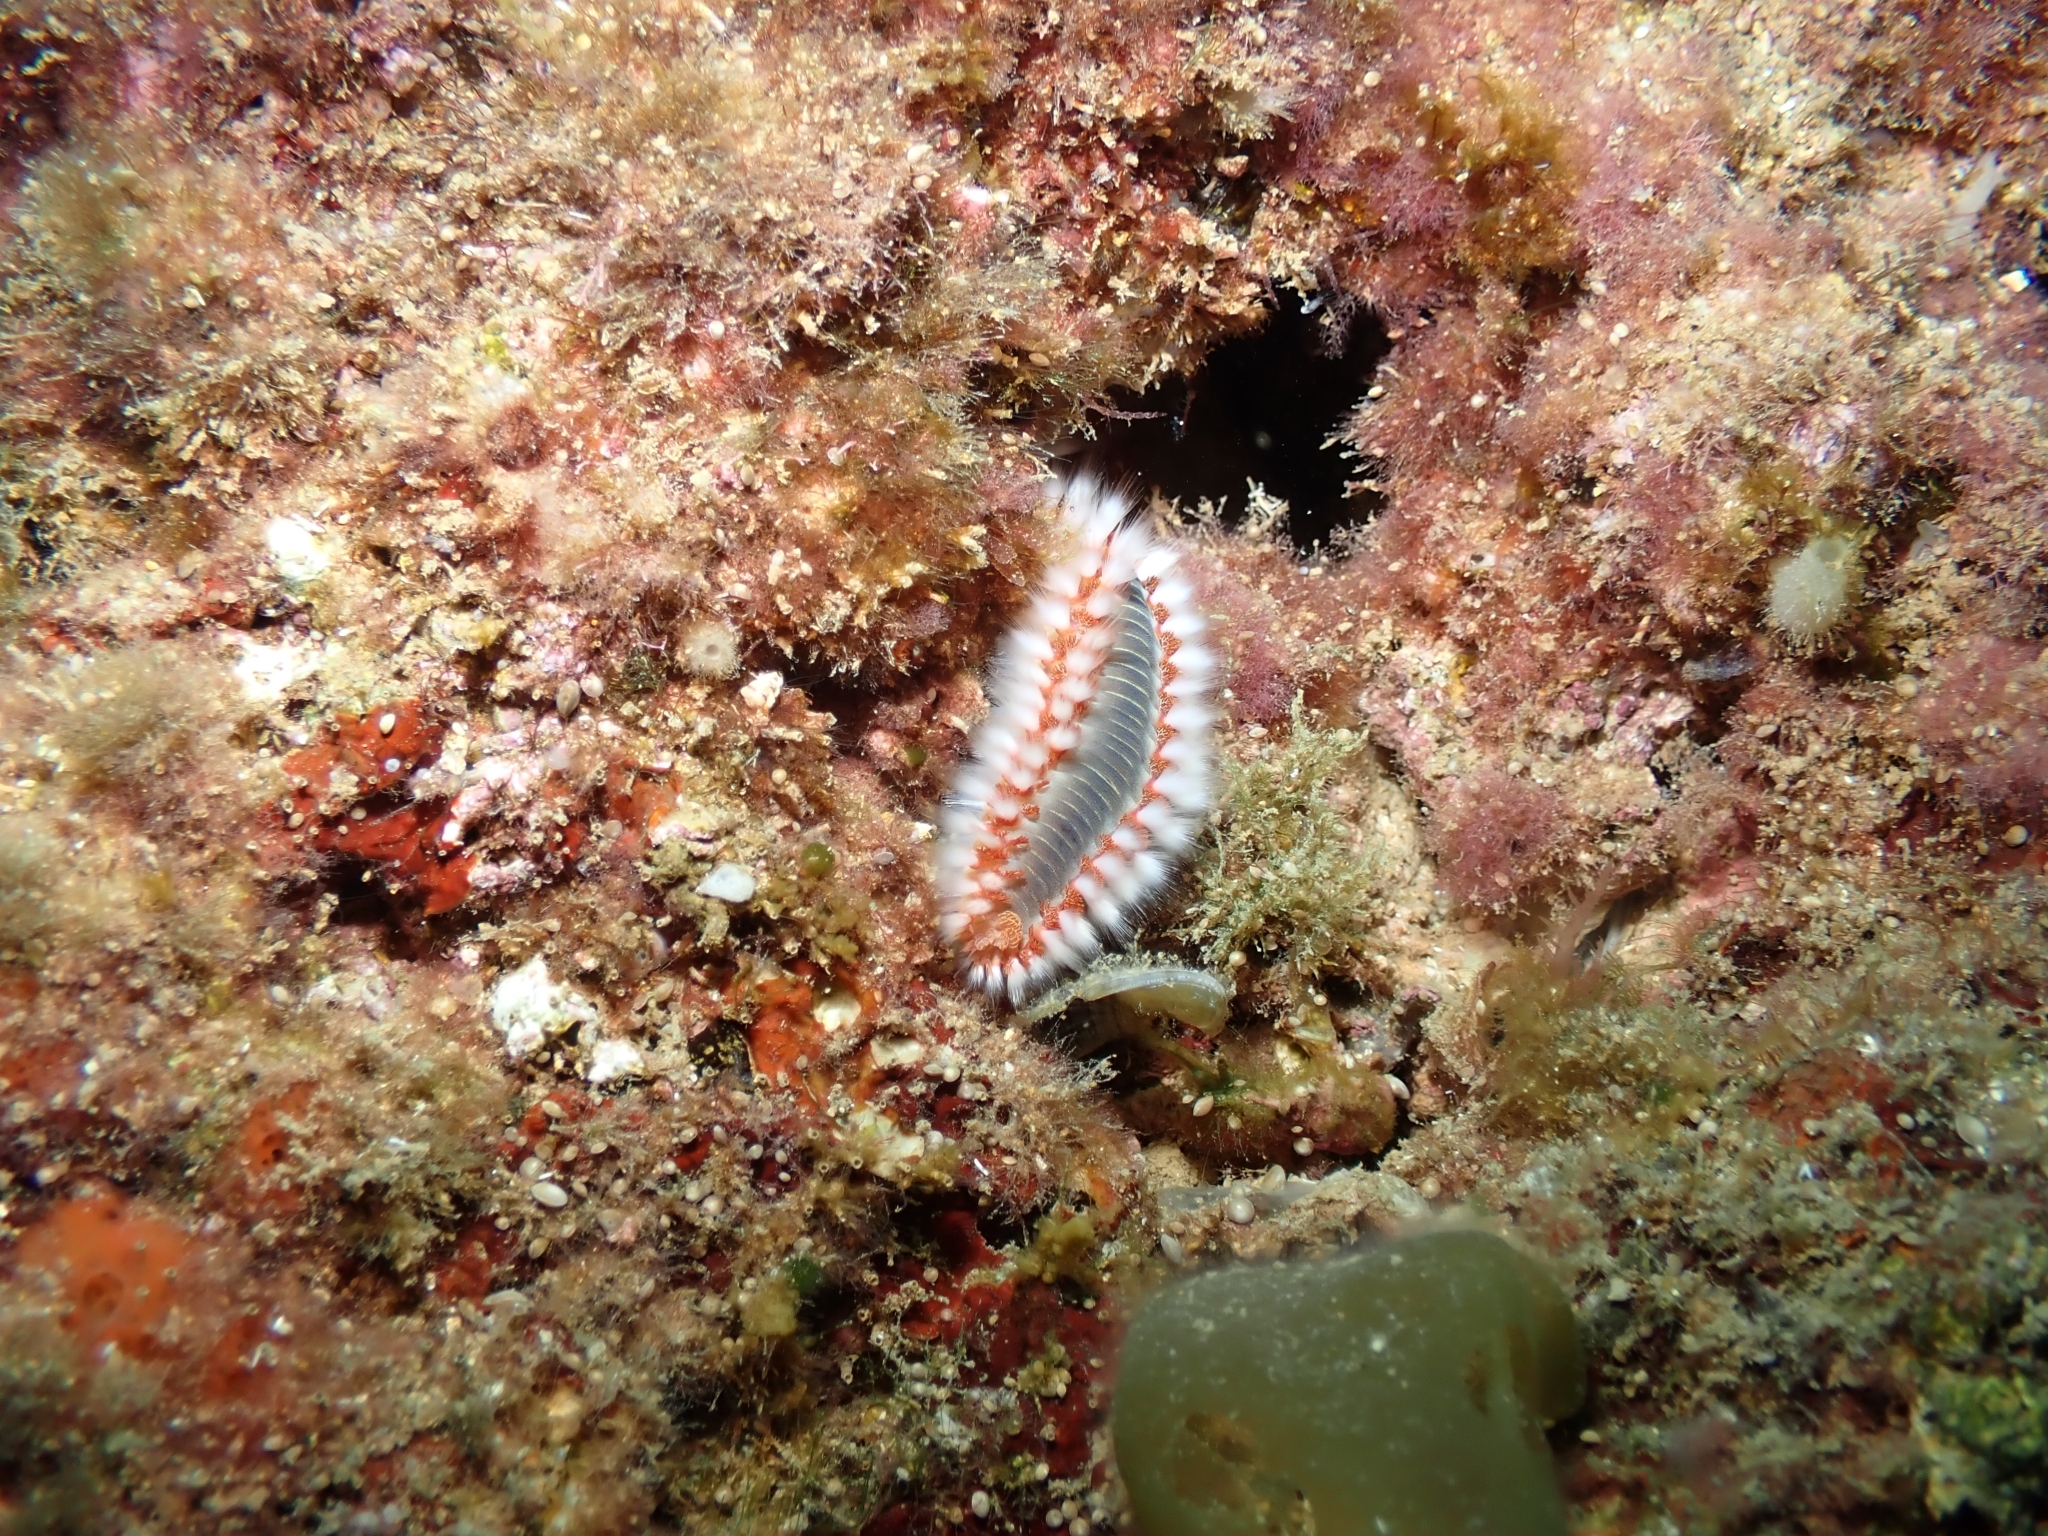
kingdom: Animalia
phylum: Annelida
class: Polychaeta
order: Amphinomida
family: Amphinomidae
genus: Hermodice
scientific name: Hermodice carunculata
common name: Bearded fireworm
